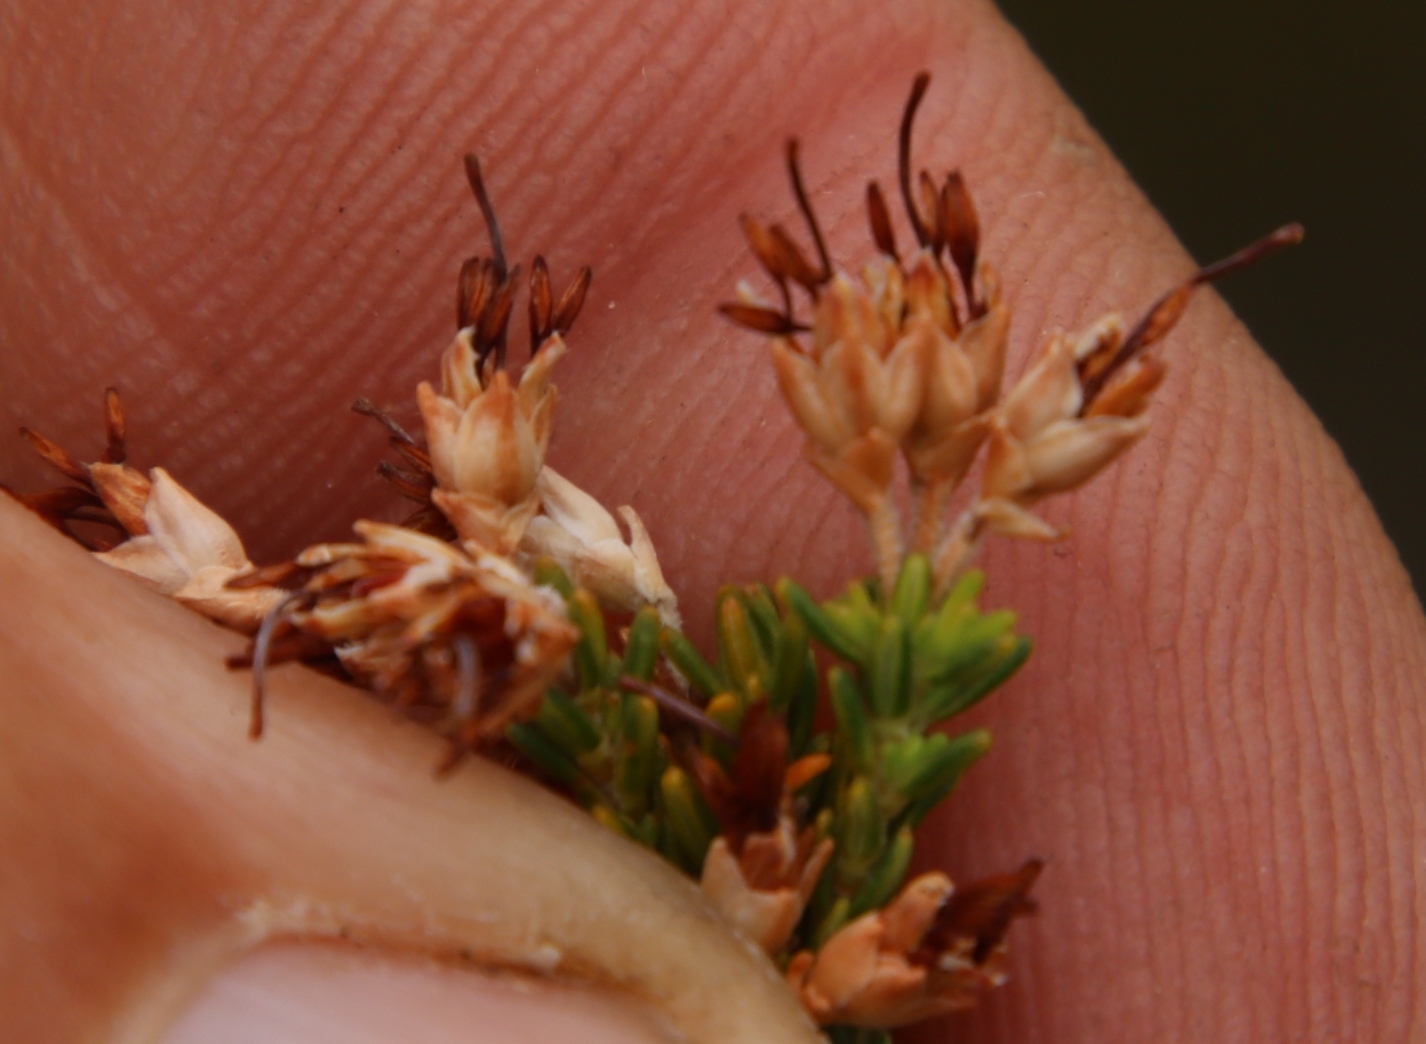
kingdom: Plantae
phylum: Tracheophyta
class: Magnoliopsida
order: Ericales
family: Ericaceae
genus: Erica
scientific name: Erica imbricata
